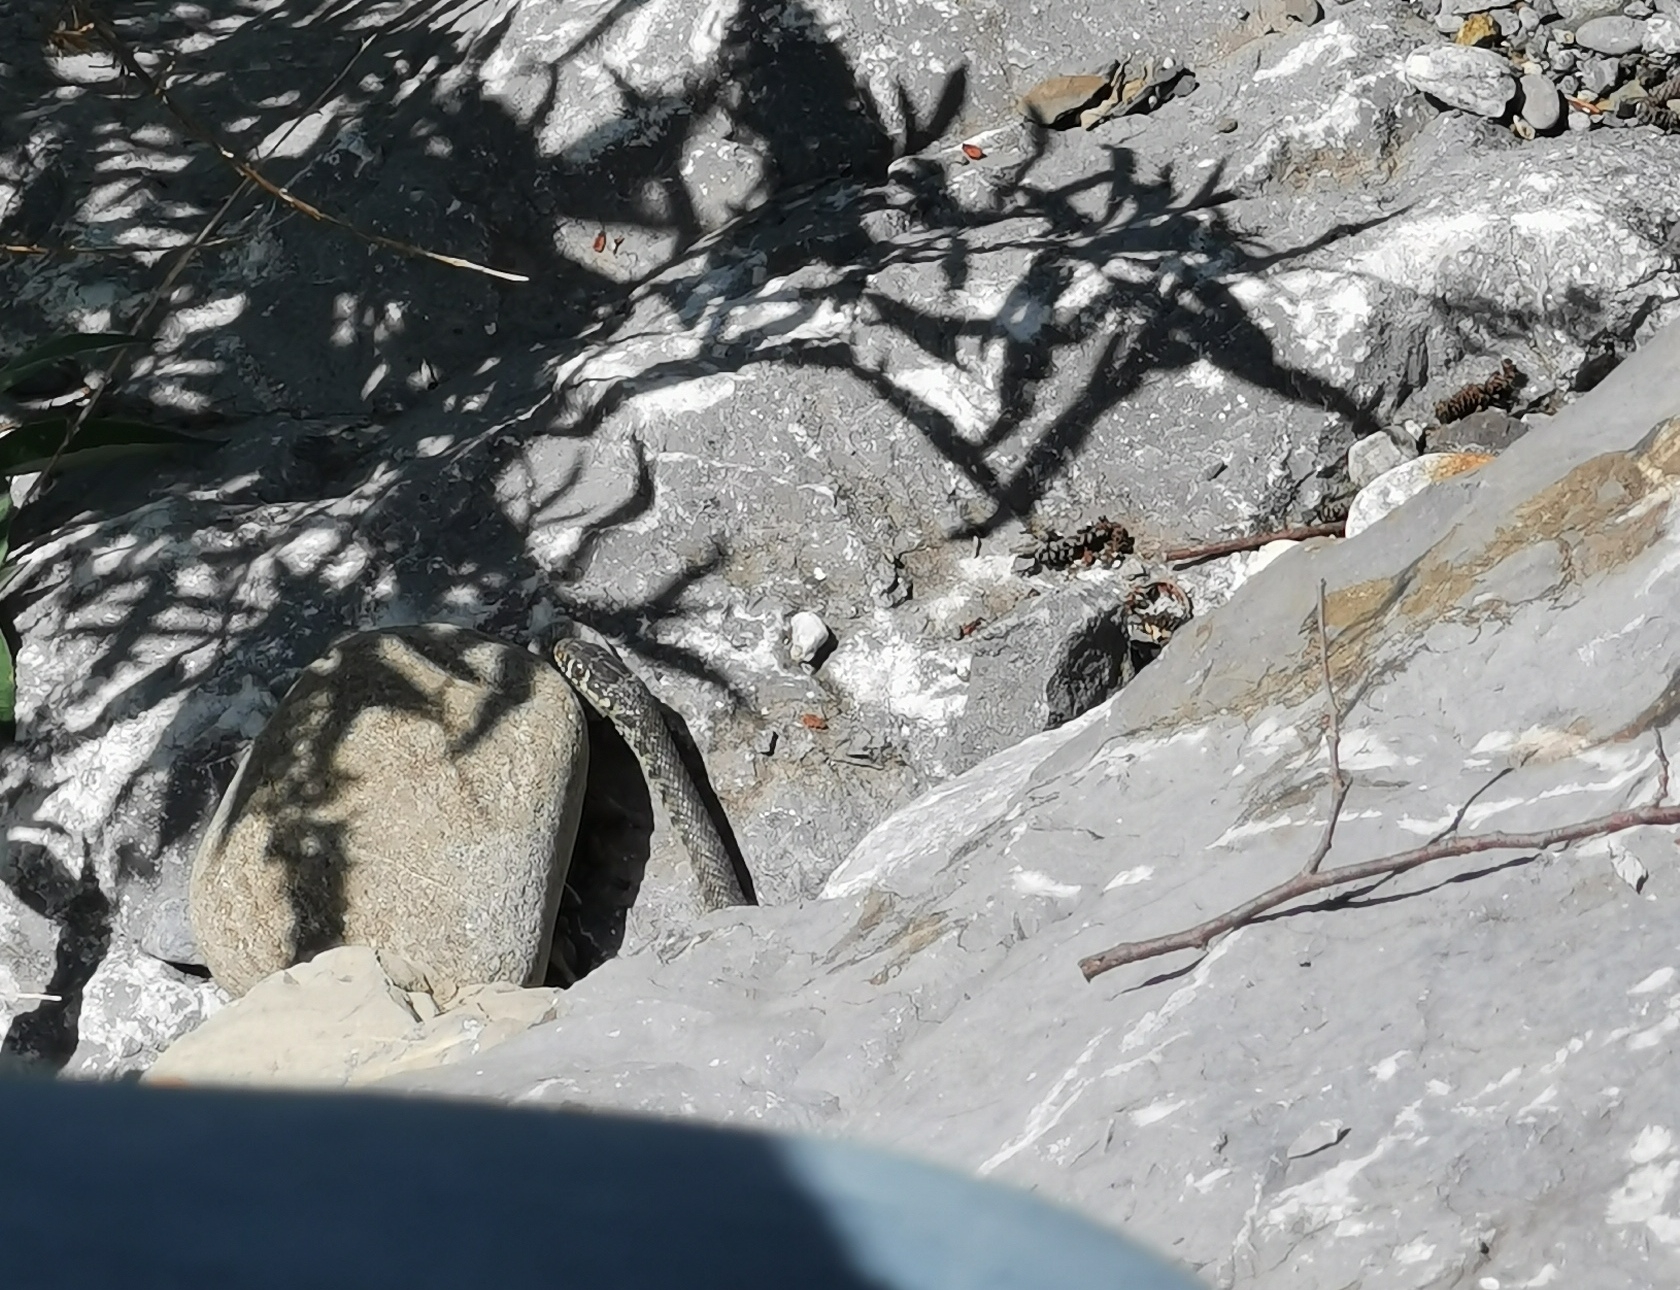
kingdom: Animalia
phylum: Chordata
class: Squamata
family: Colubridae
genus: Hierophis
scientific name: Hierophis viridiflavus
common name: Green whip snake
